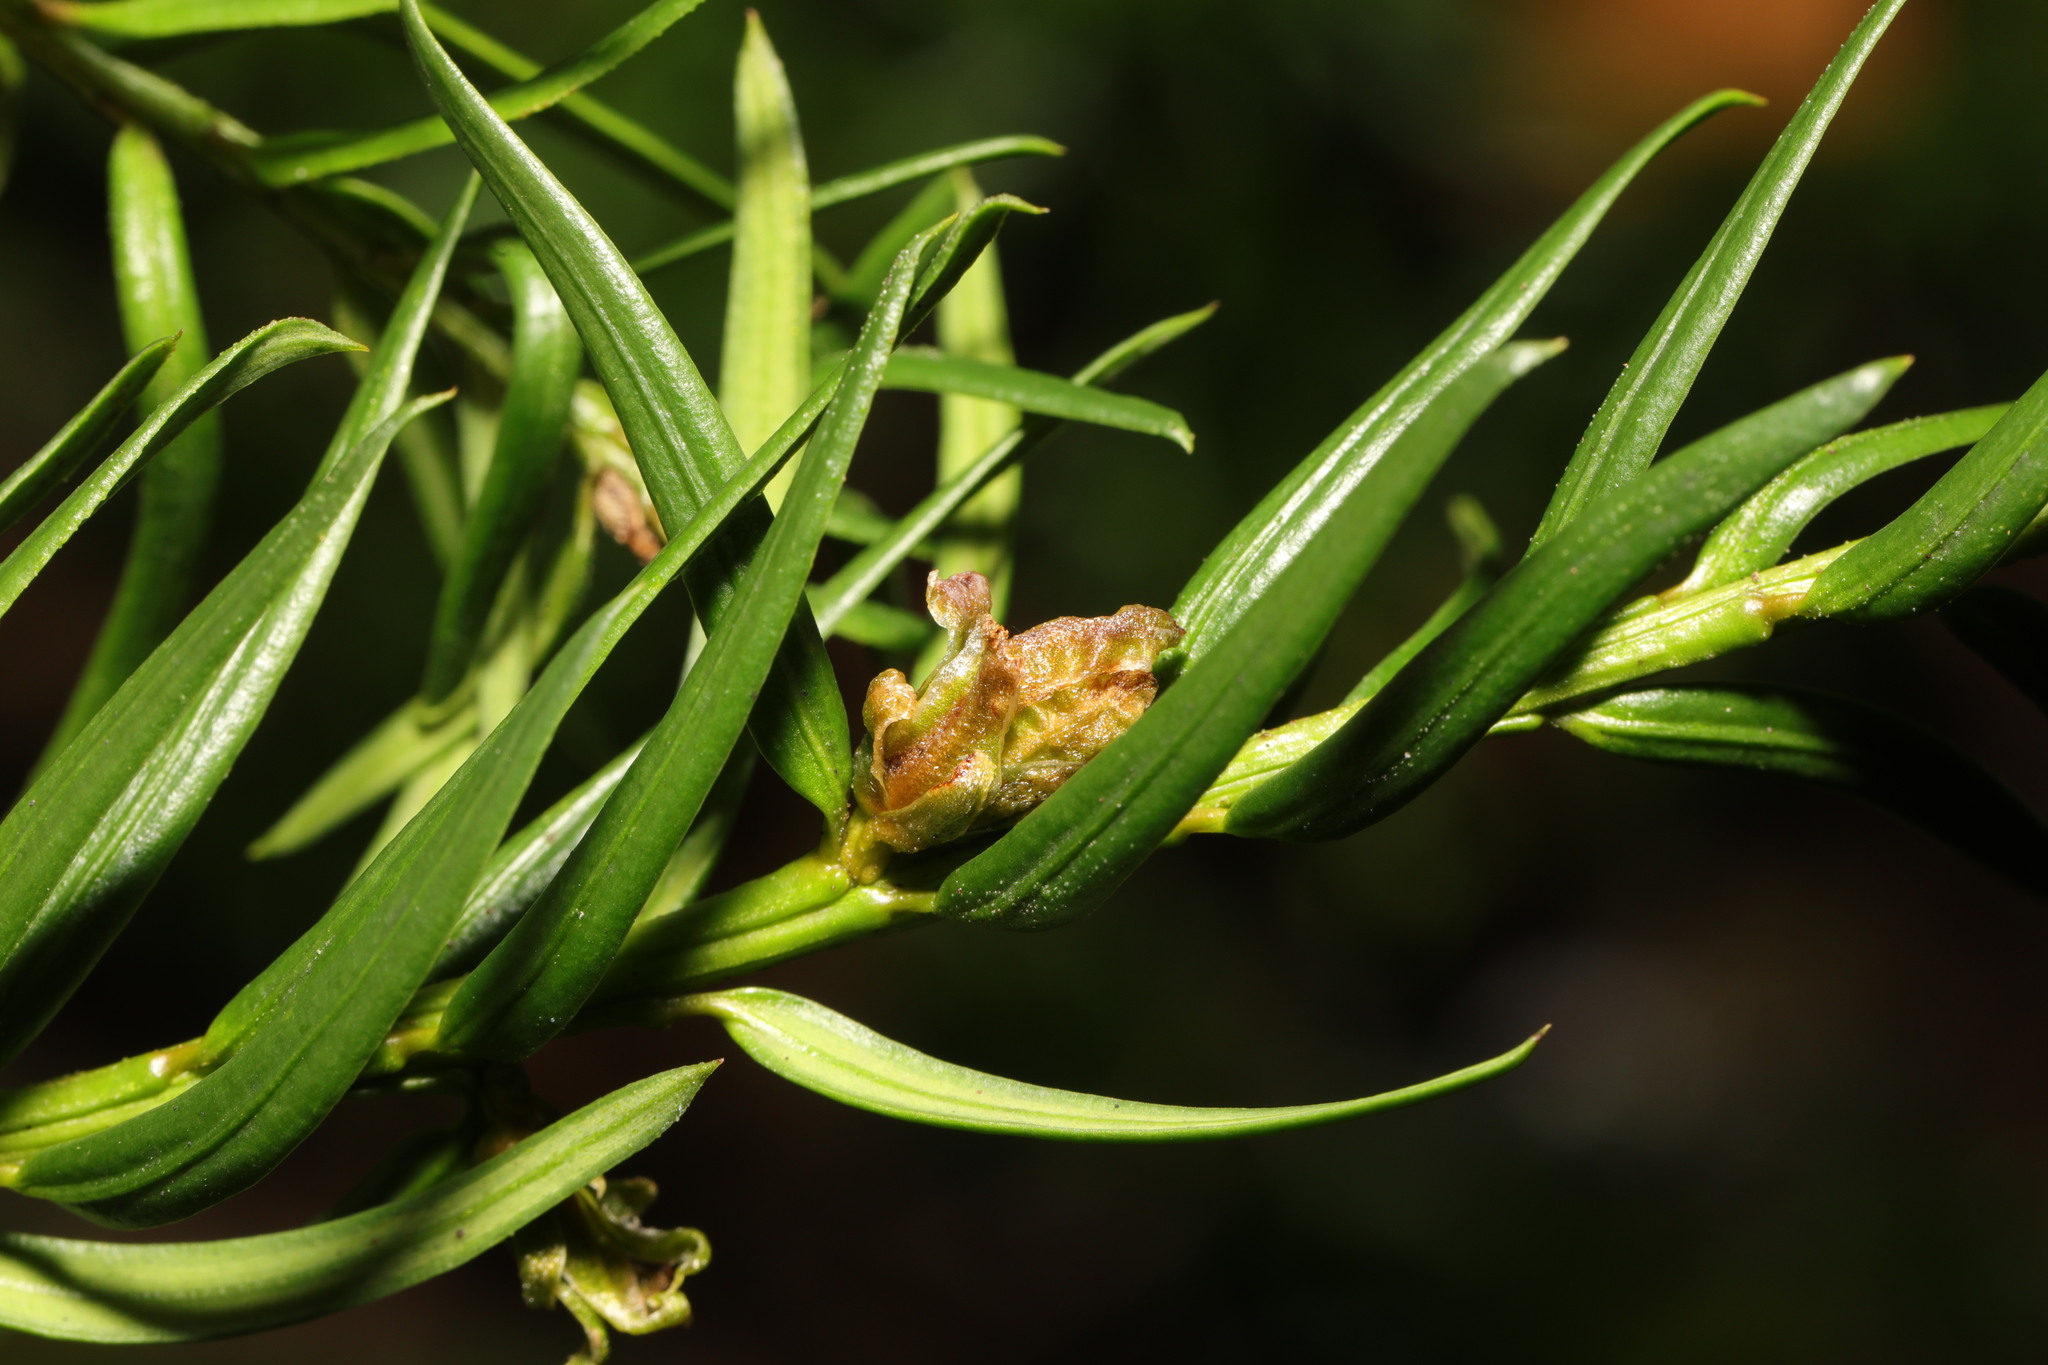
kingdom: Animalia
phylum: Arthropoda
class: Arachnida
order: Trombidiformes
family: Eriophyidae
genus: Cecidophyopsis
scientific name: Cecidophyopsis psilaspis
